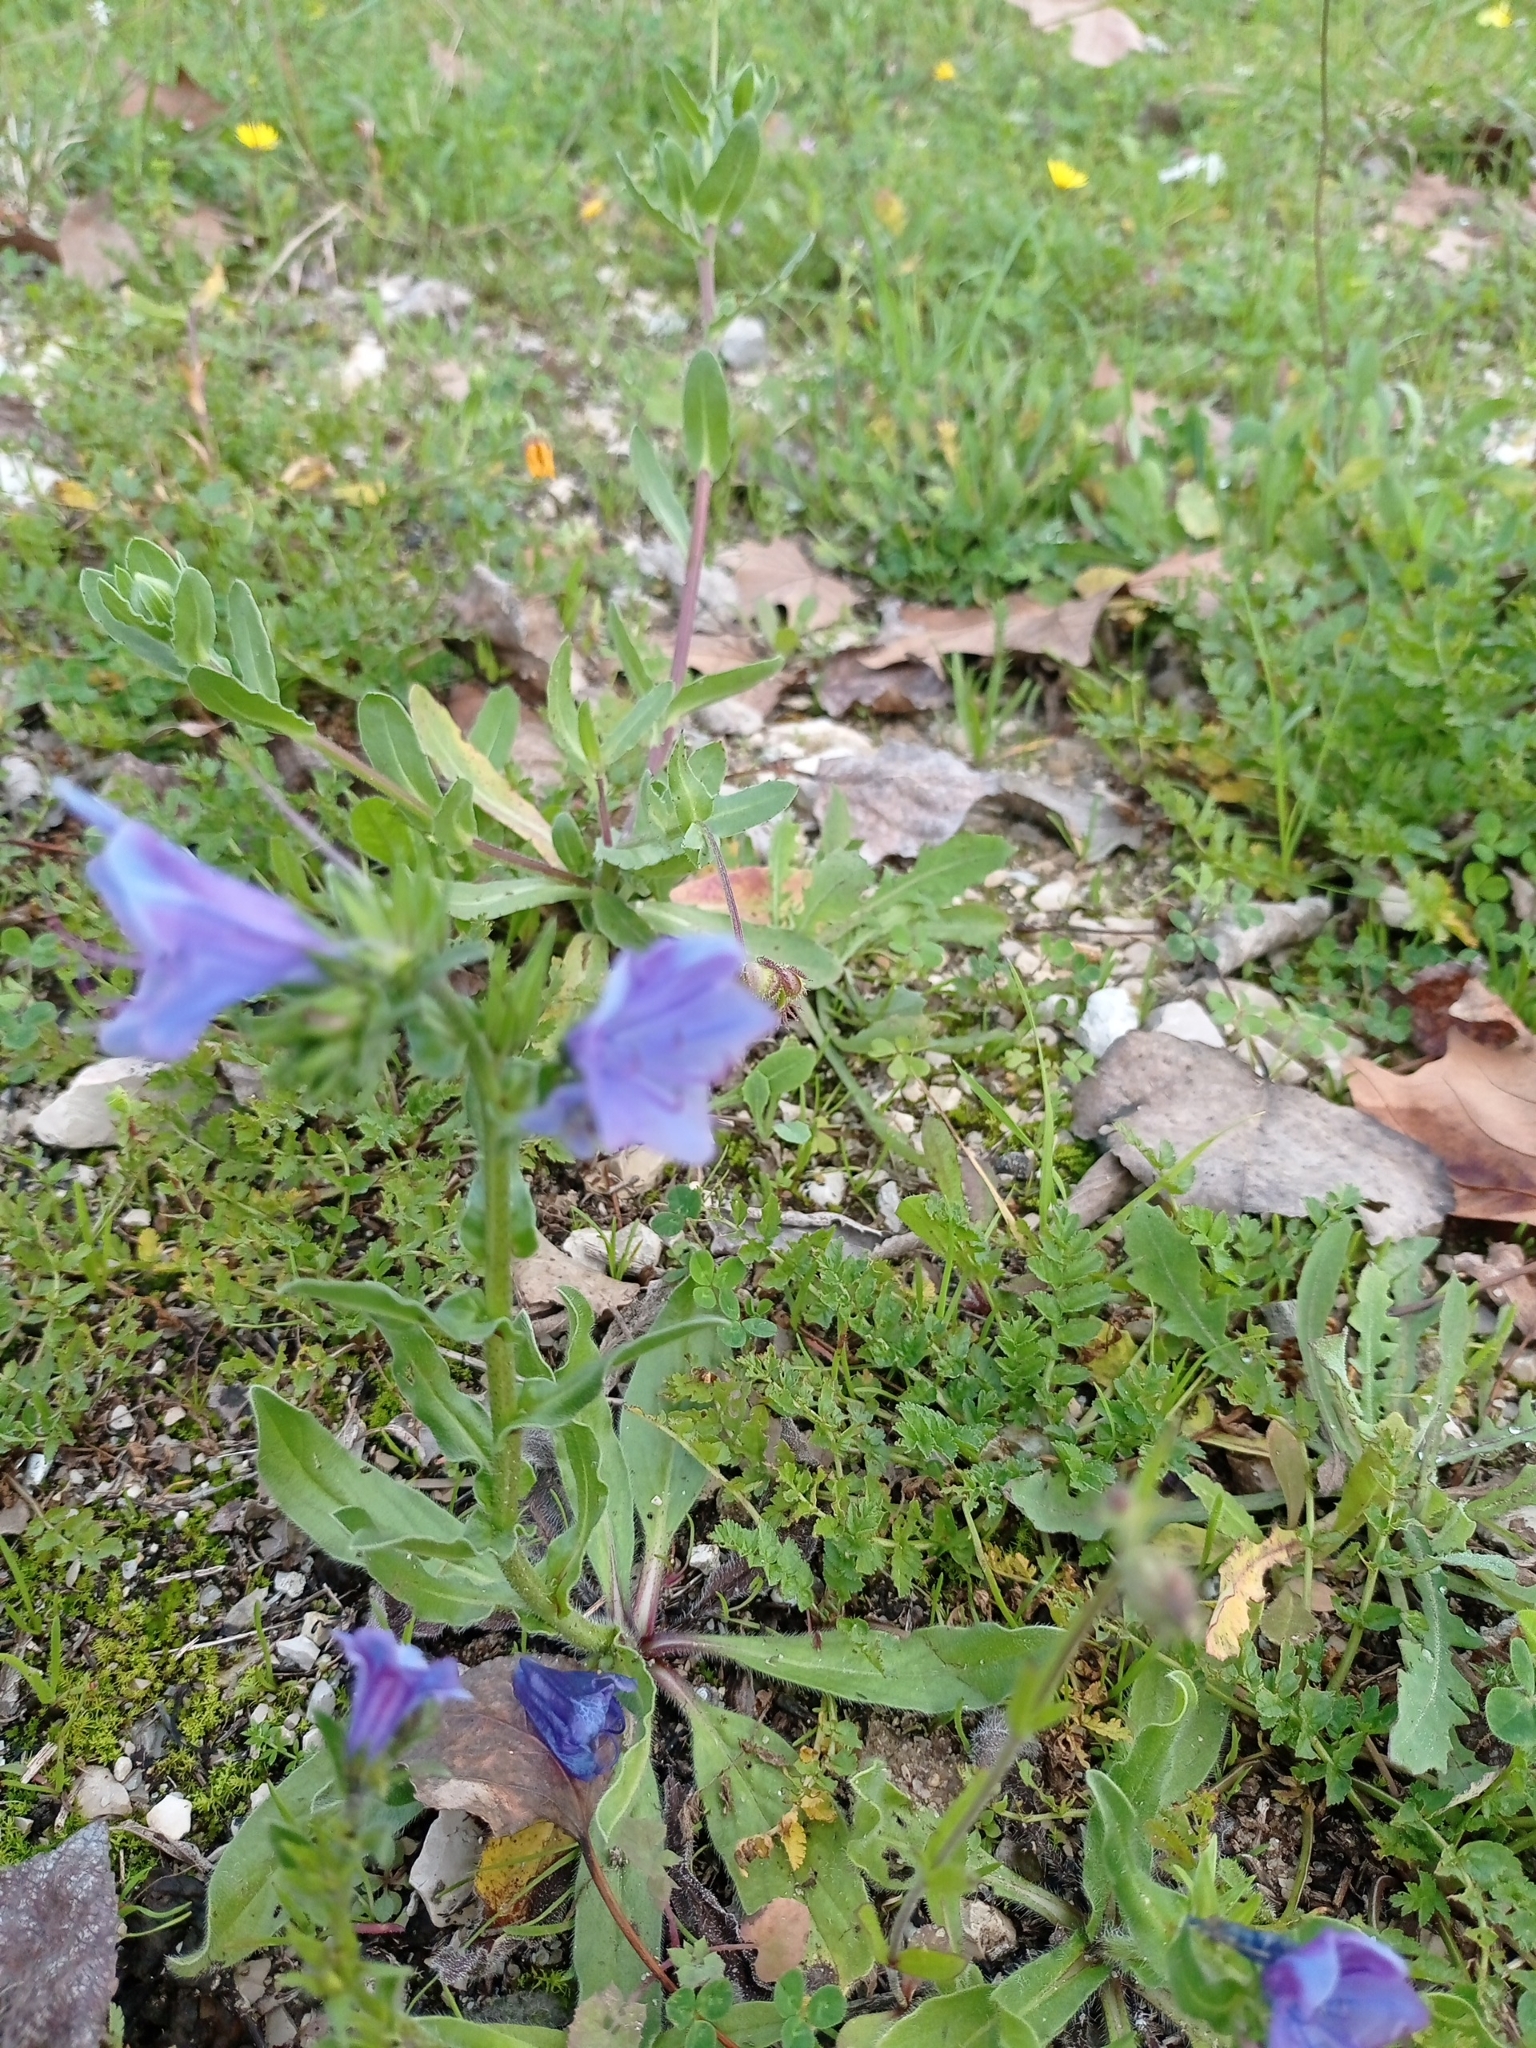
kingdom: Plantae
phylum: Tracheophyta
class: Magnoliopsida
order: Boraginales
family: Boraginaceae
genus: Echium
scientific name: Echium plantagineum
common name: Purple viper's-bugloss
